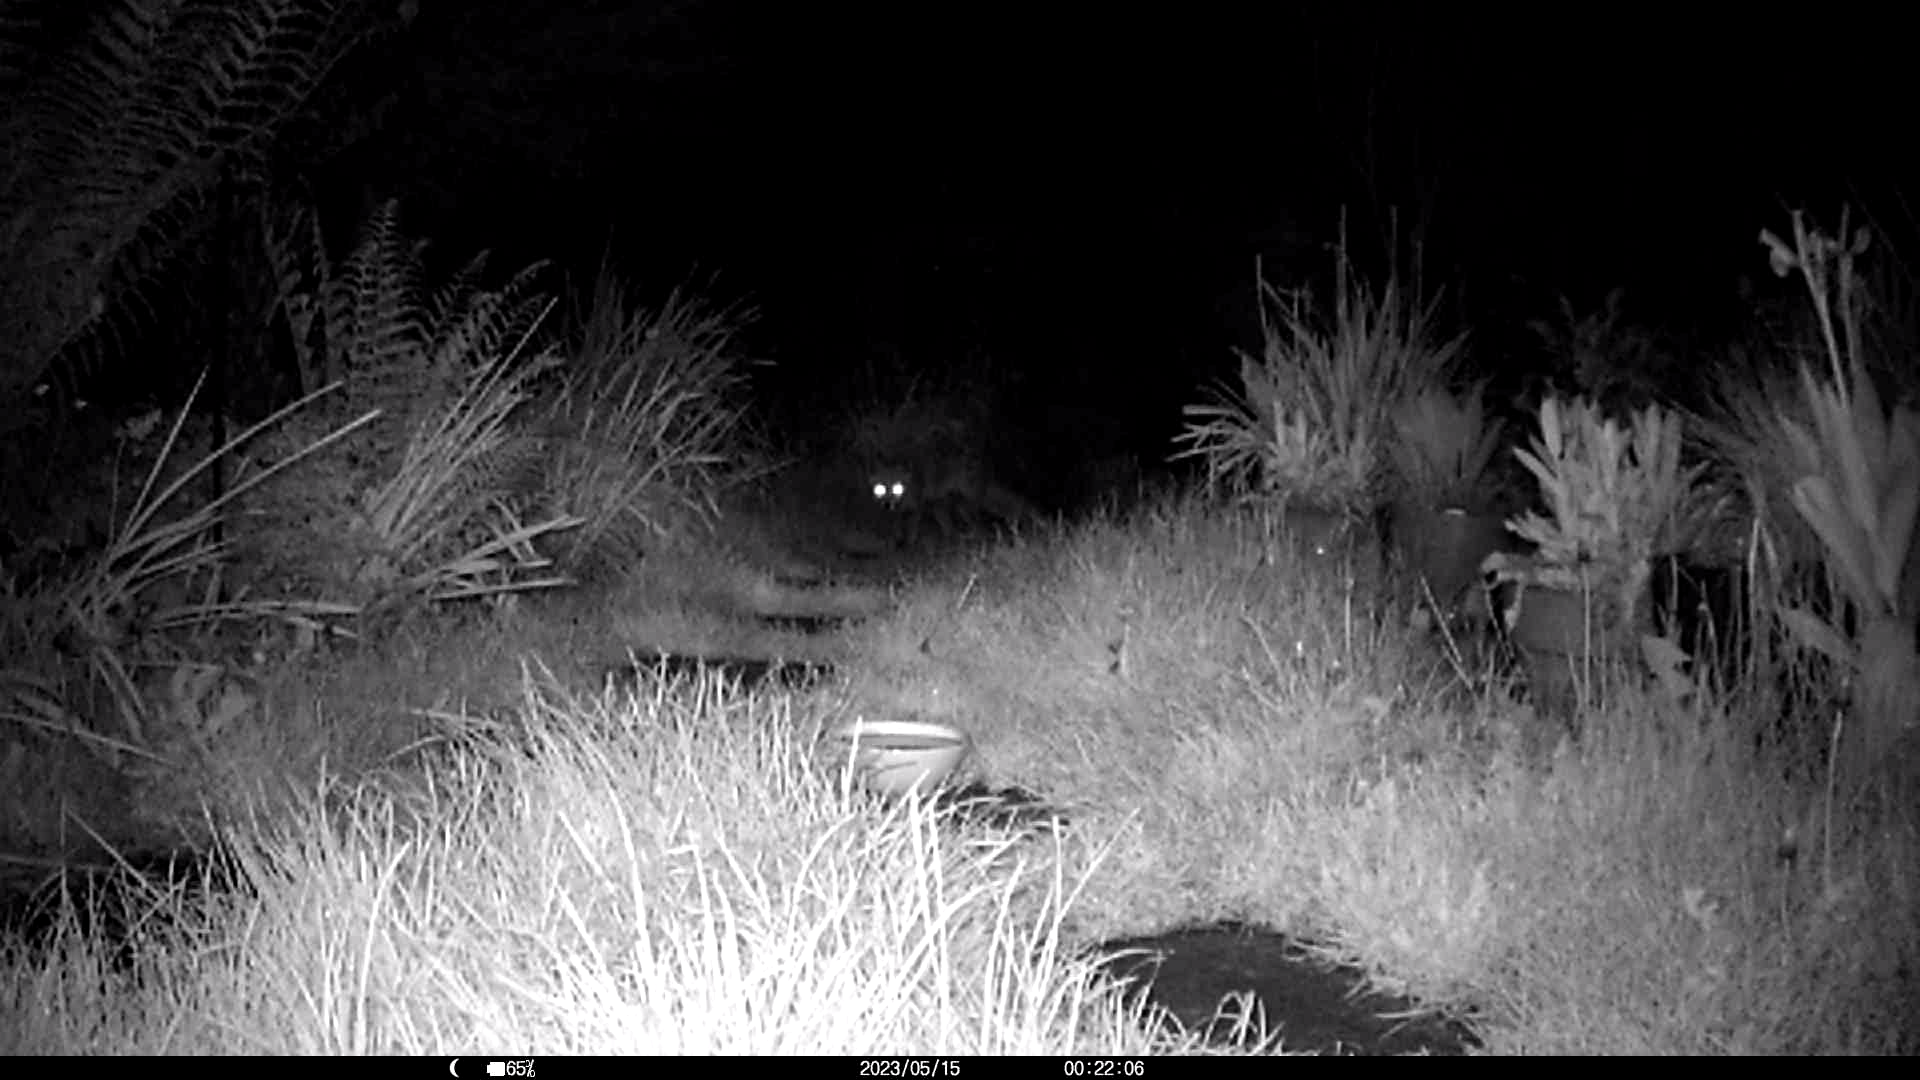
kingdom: Animalia
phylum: Chordata
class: Mammalia
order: Carnivora
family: Canidae
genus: Vulpes
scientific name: Vulpes vulpes
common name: Red fox
